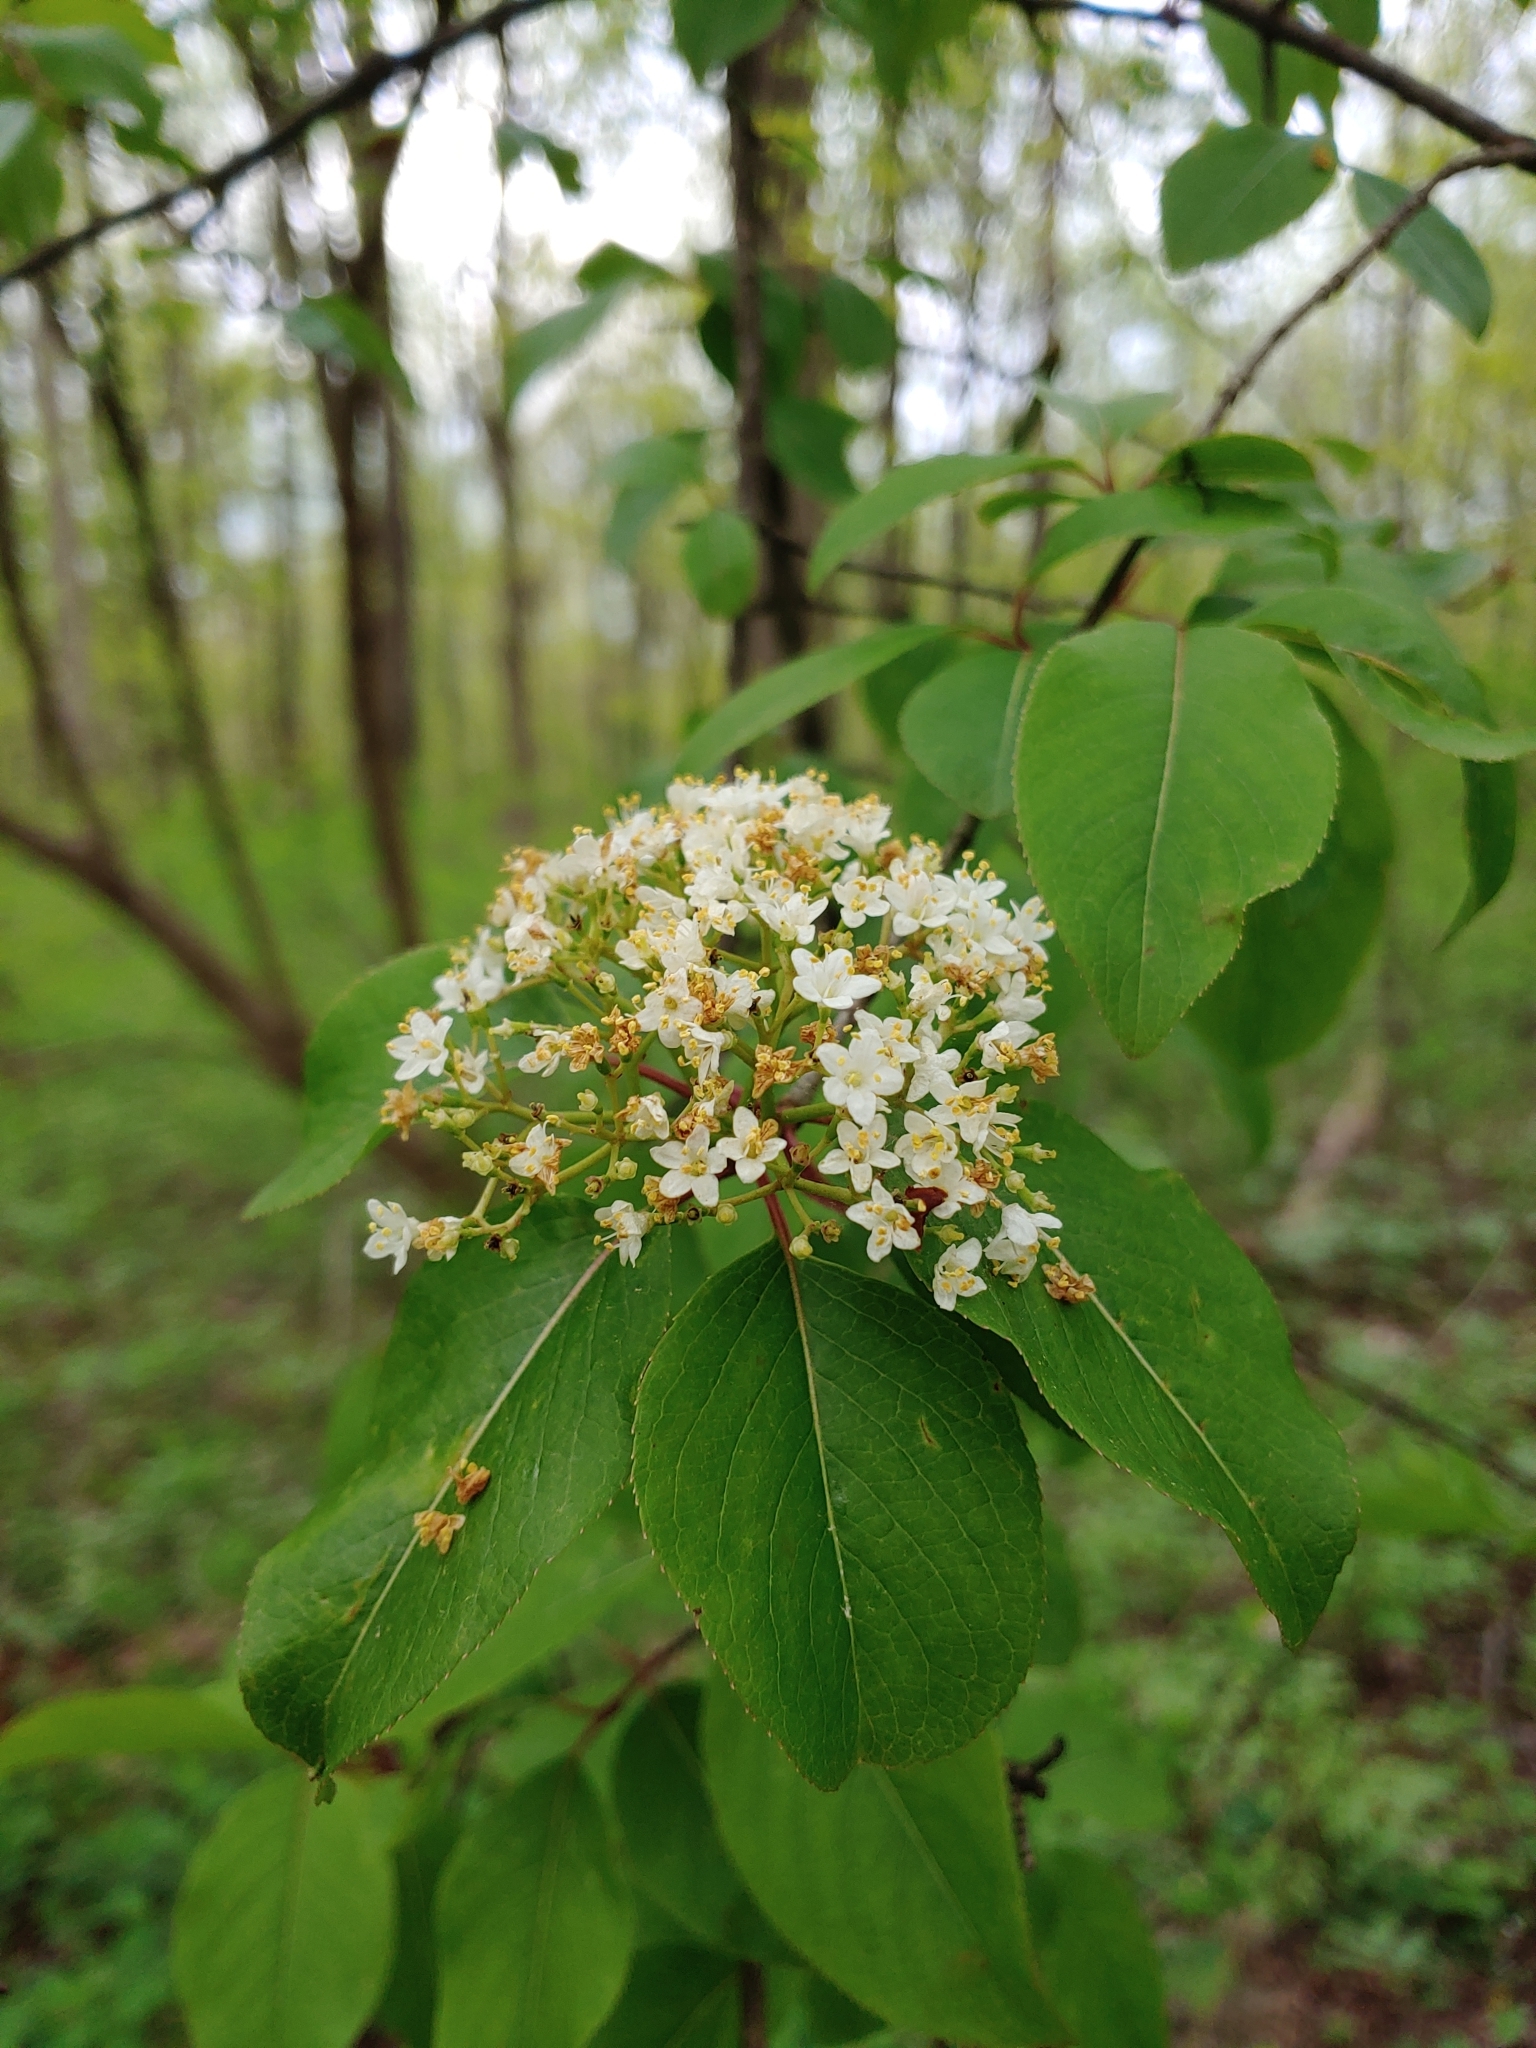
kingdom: Plantae
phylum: Tracheophyta
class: Magnoliopsida
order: Dipsacales
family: Viburnaceae
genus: Viburnum
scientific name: Viburnum prunifolium
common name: Black haw
